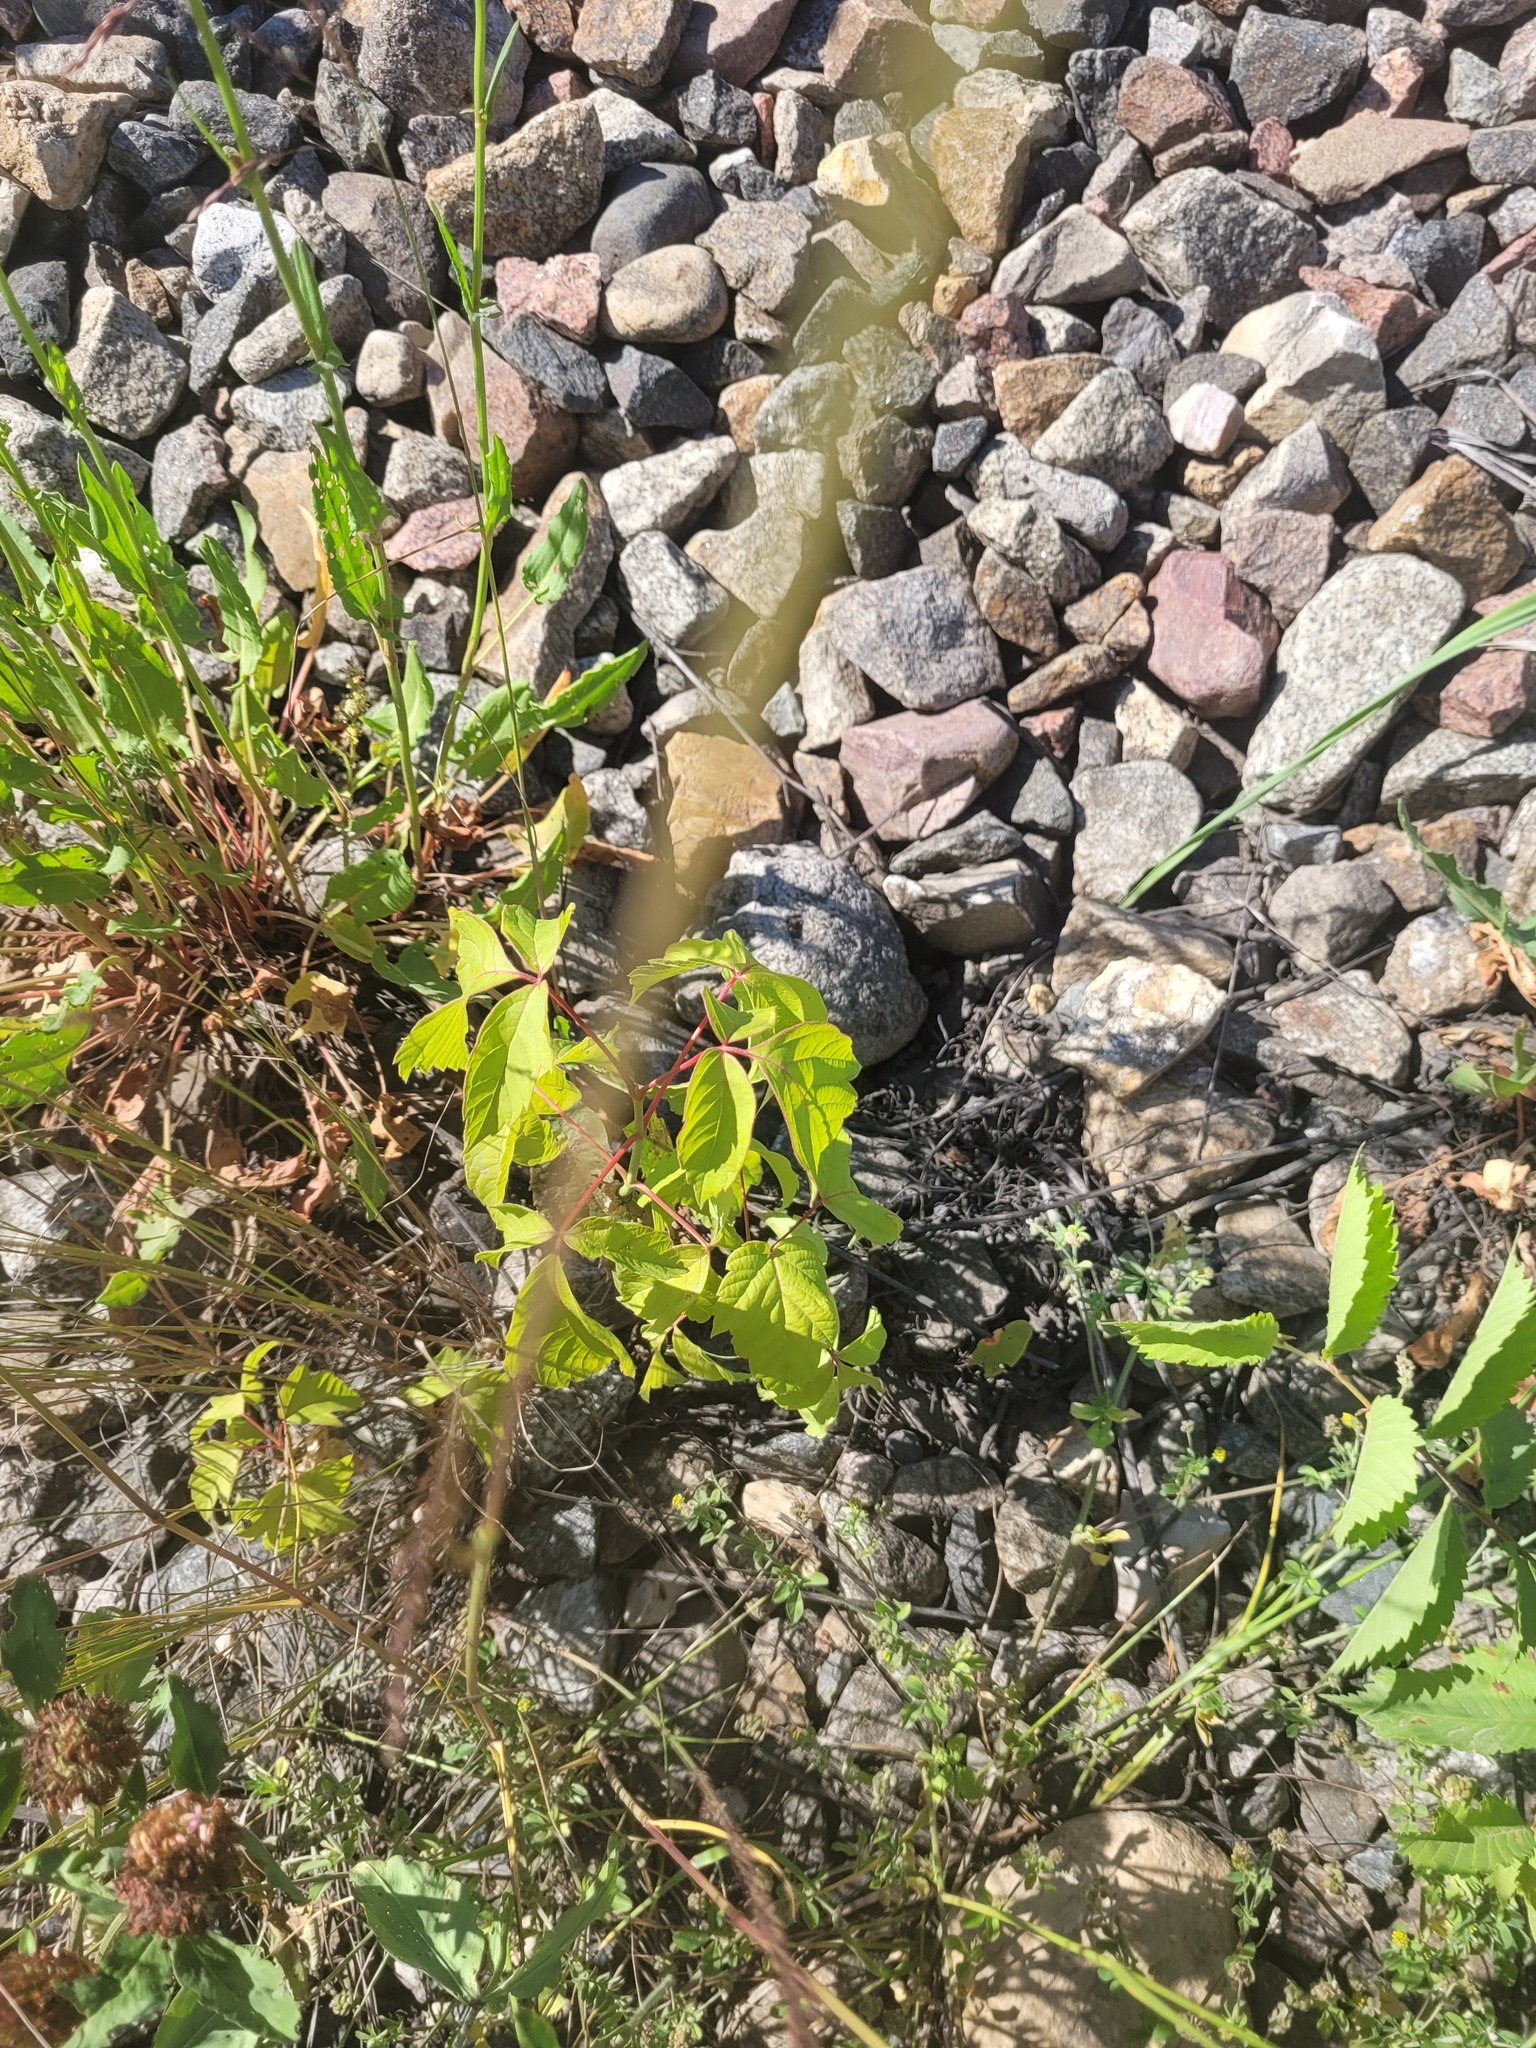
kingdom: Plantae
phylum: Tracheophyta
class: Magnoliopsida
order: Sapindales
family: Sapindaceae
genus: Acer
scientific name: Acer negundo
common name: Ashleaf maple
